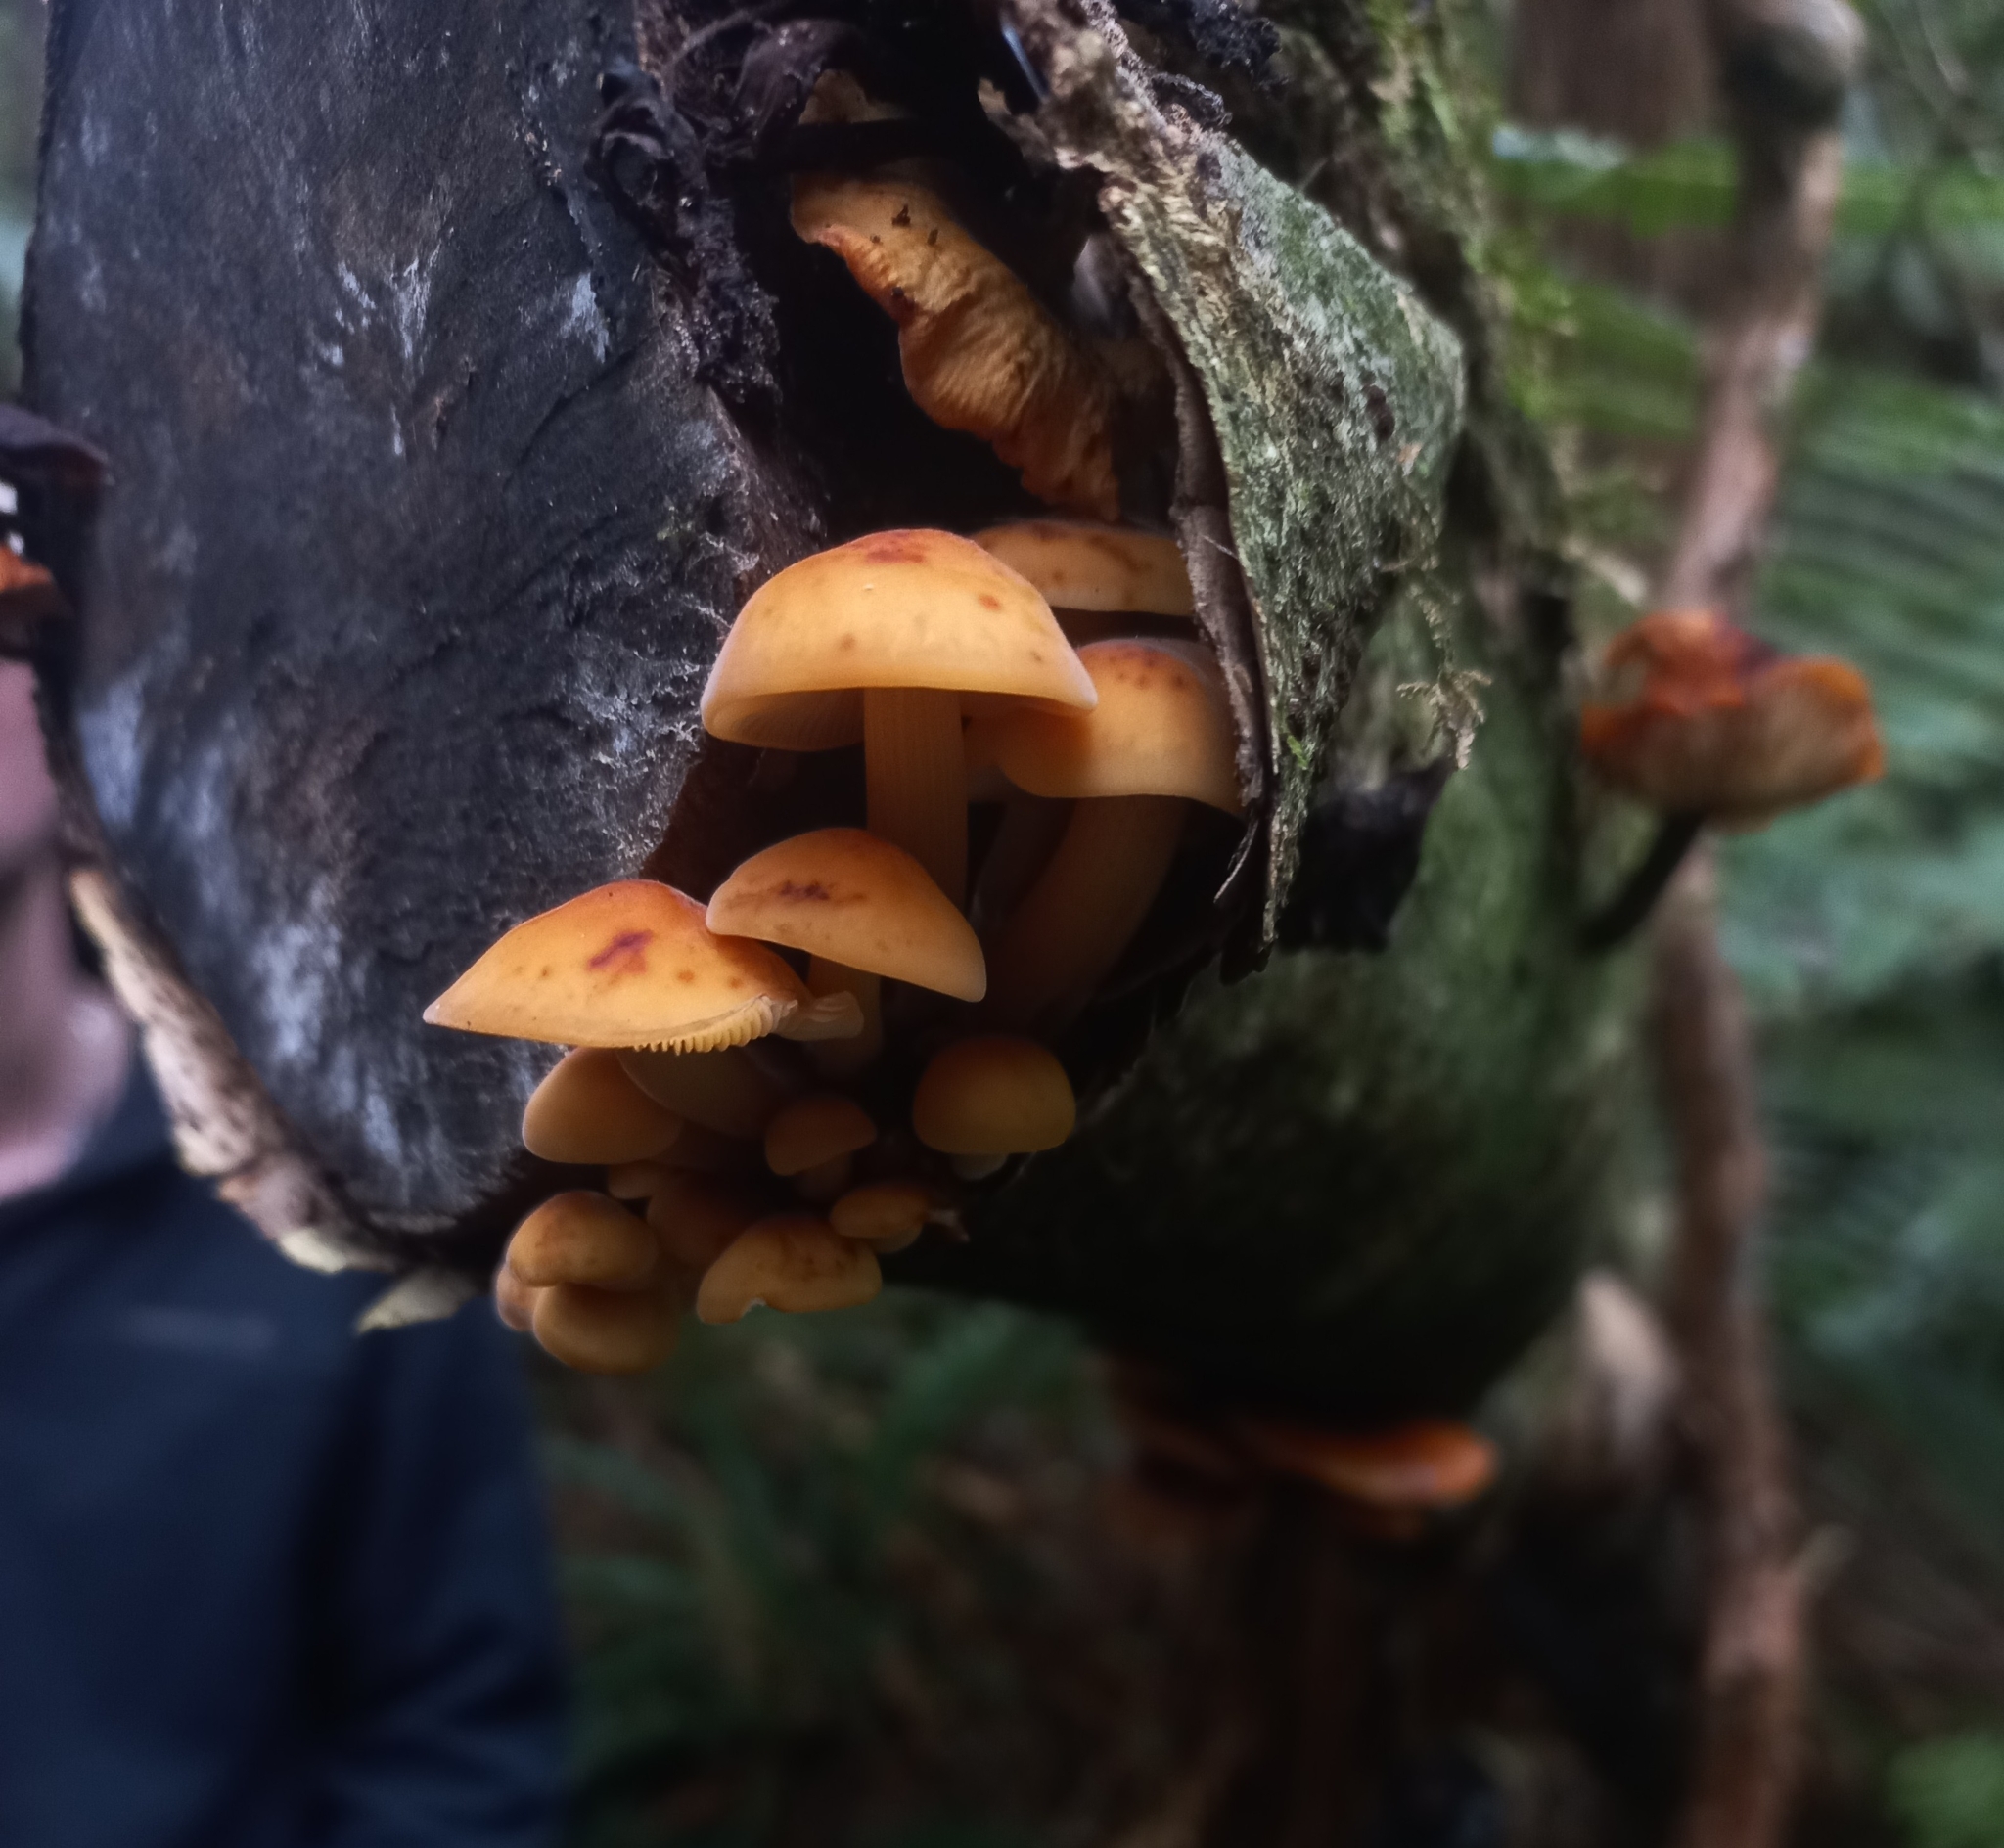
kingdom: Fungi
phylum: Basidiomycota
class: Agaricomycetes
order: Agaricales
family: Physalacriaceae
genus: Flammulina
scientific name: Flammulina velutipes
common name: Velvet shank
